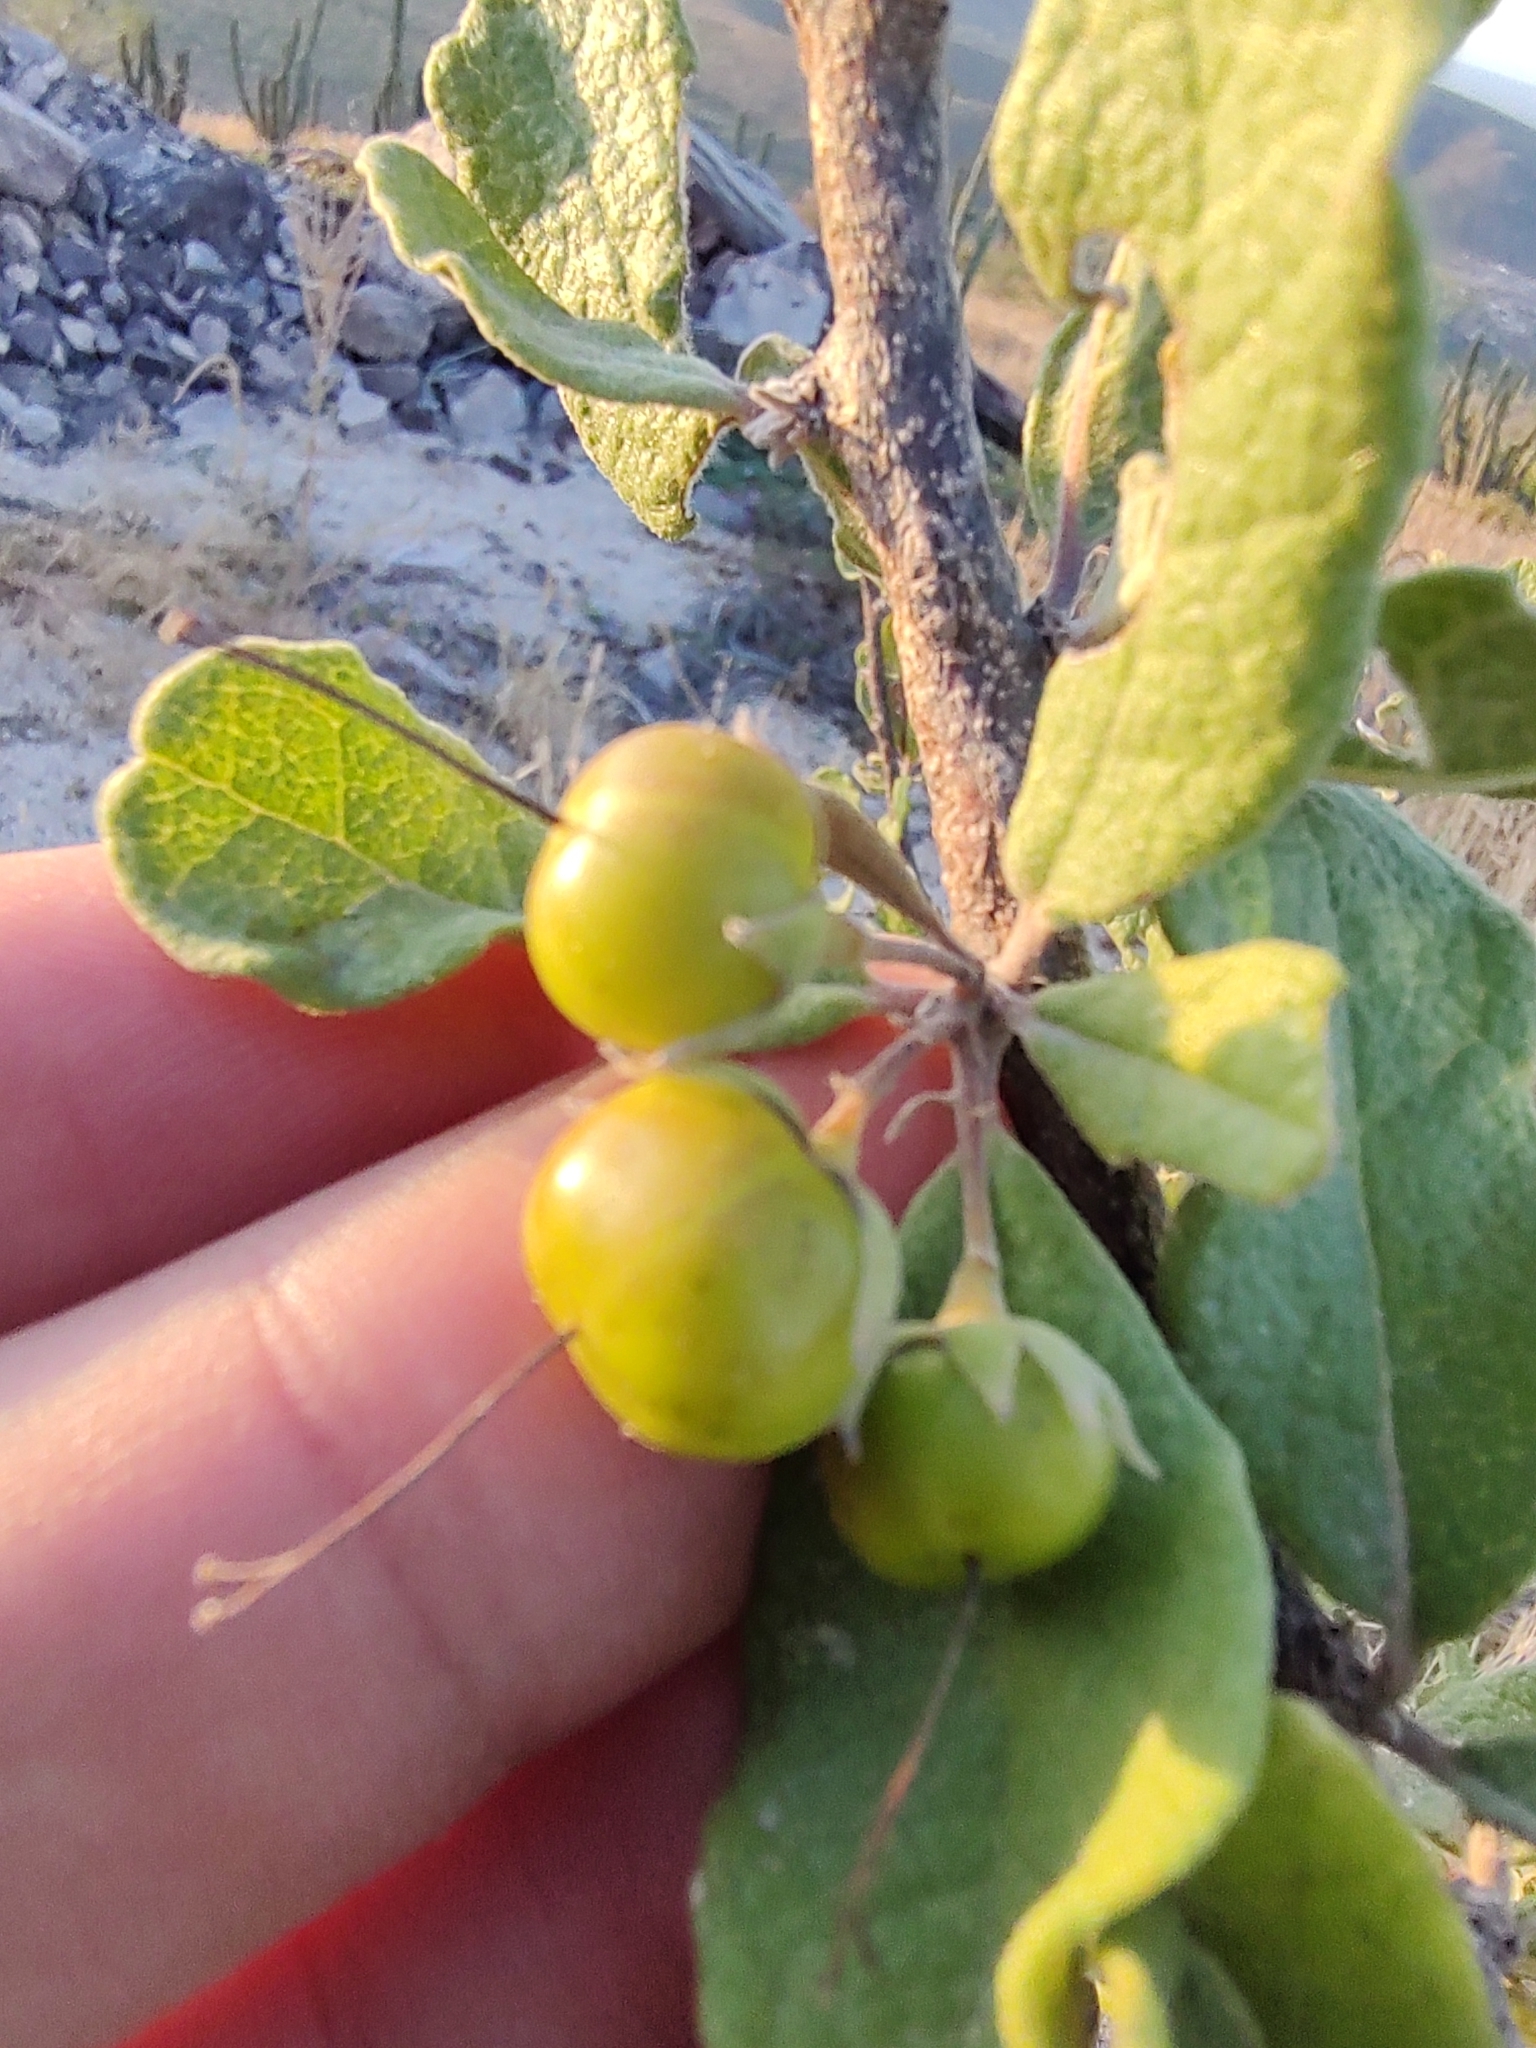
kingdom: Plantae
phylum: Tracheophyta
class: Magnoliopsida
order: Boraginales
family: Ehretiaceae
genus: Bourreria
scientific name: Bourreria sonorae
